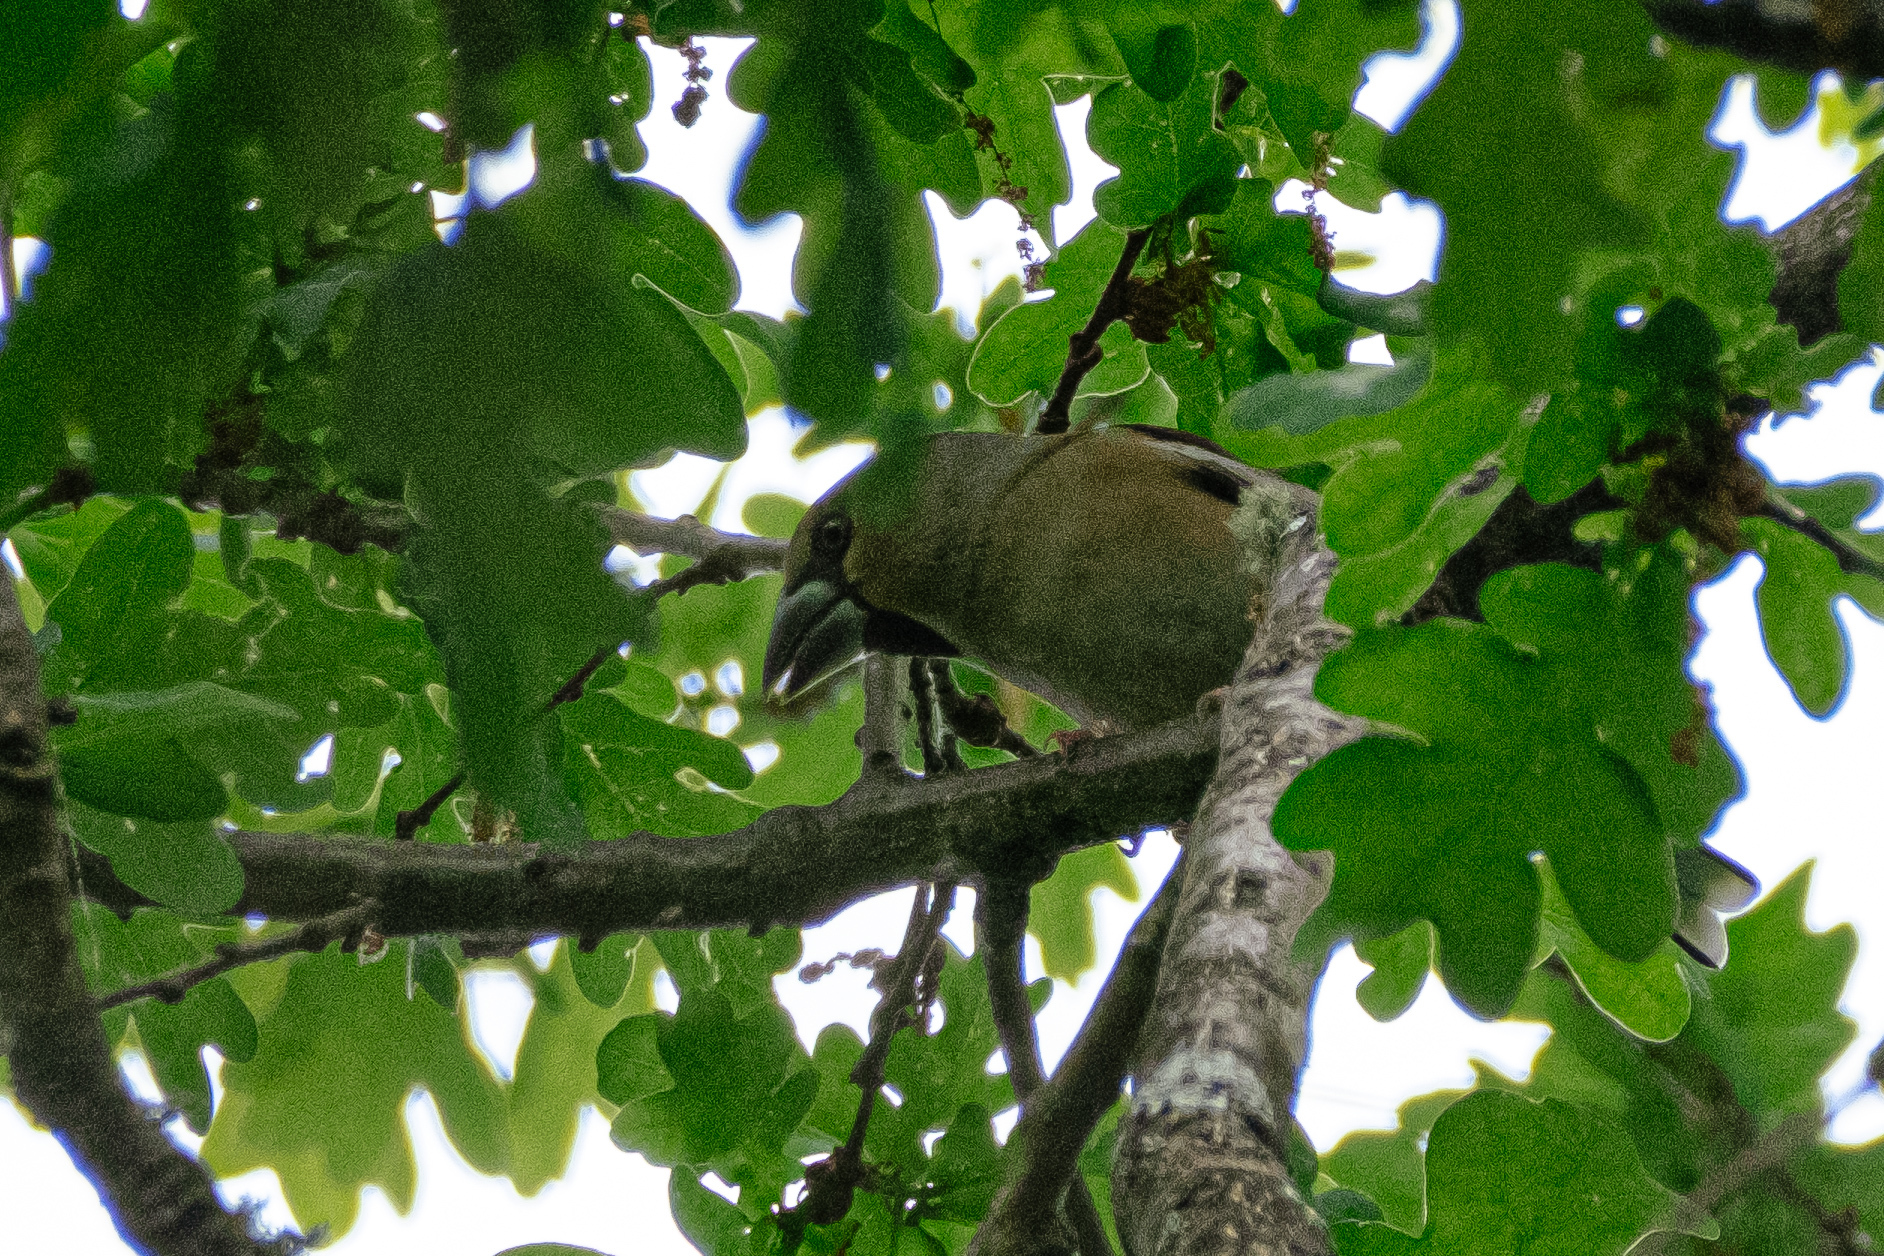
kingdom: Animalia
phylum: Chordata
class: Aves
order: Passeriformes
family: Fringillidae
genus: Coccothraustes
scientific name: Coccothraustes coccothraustes
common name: Hawfinch
